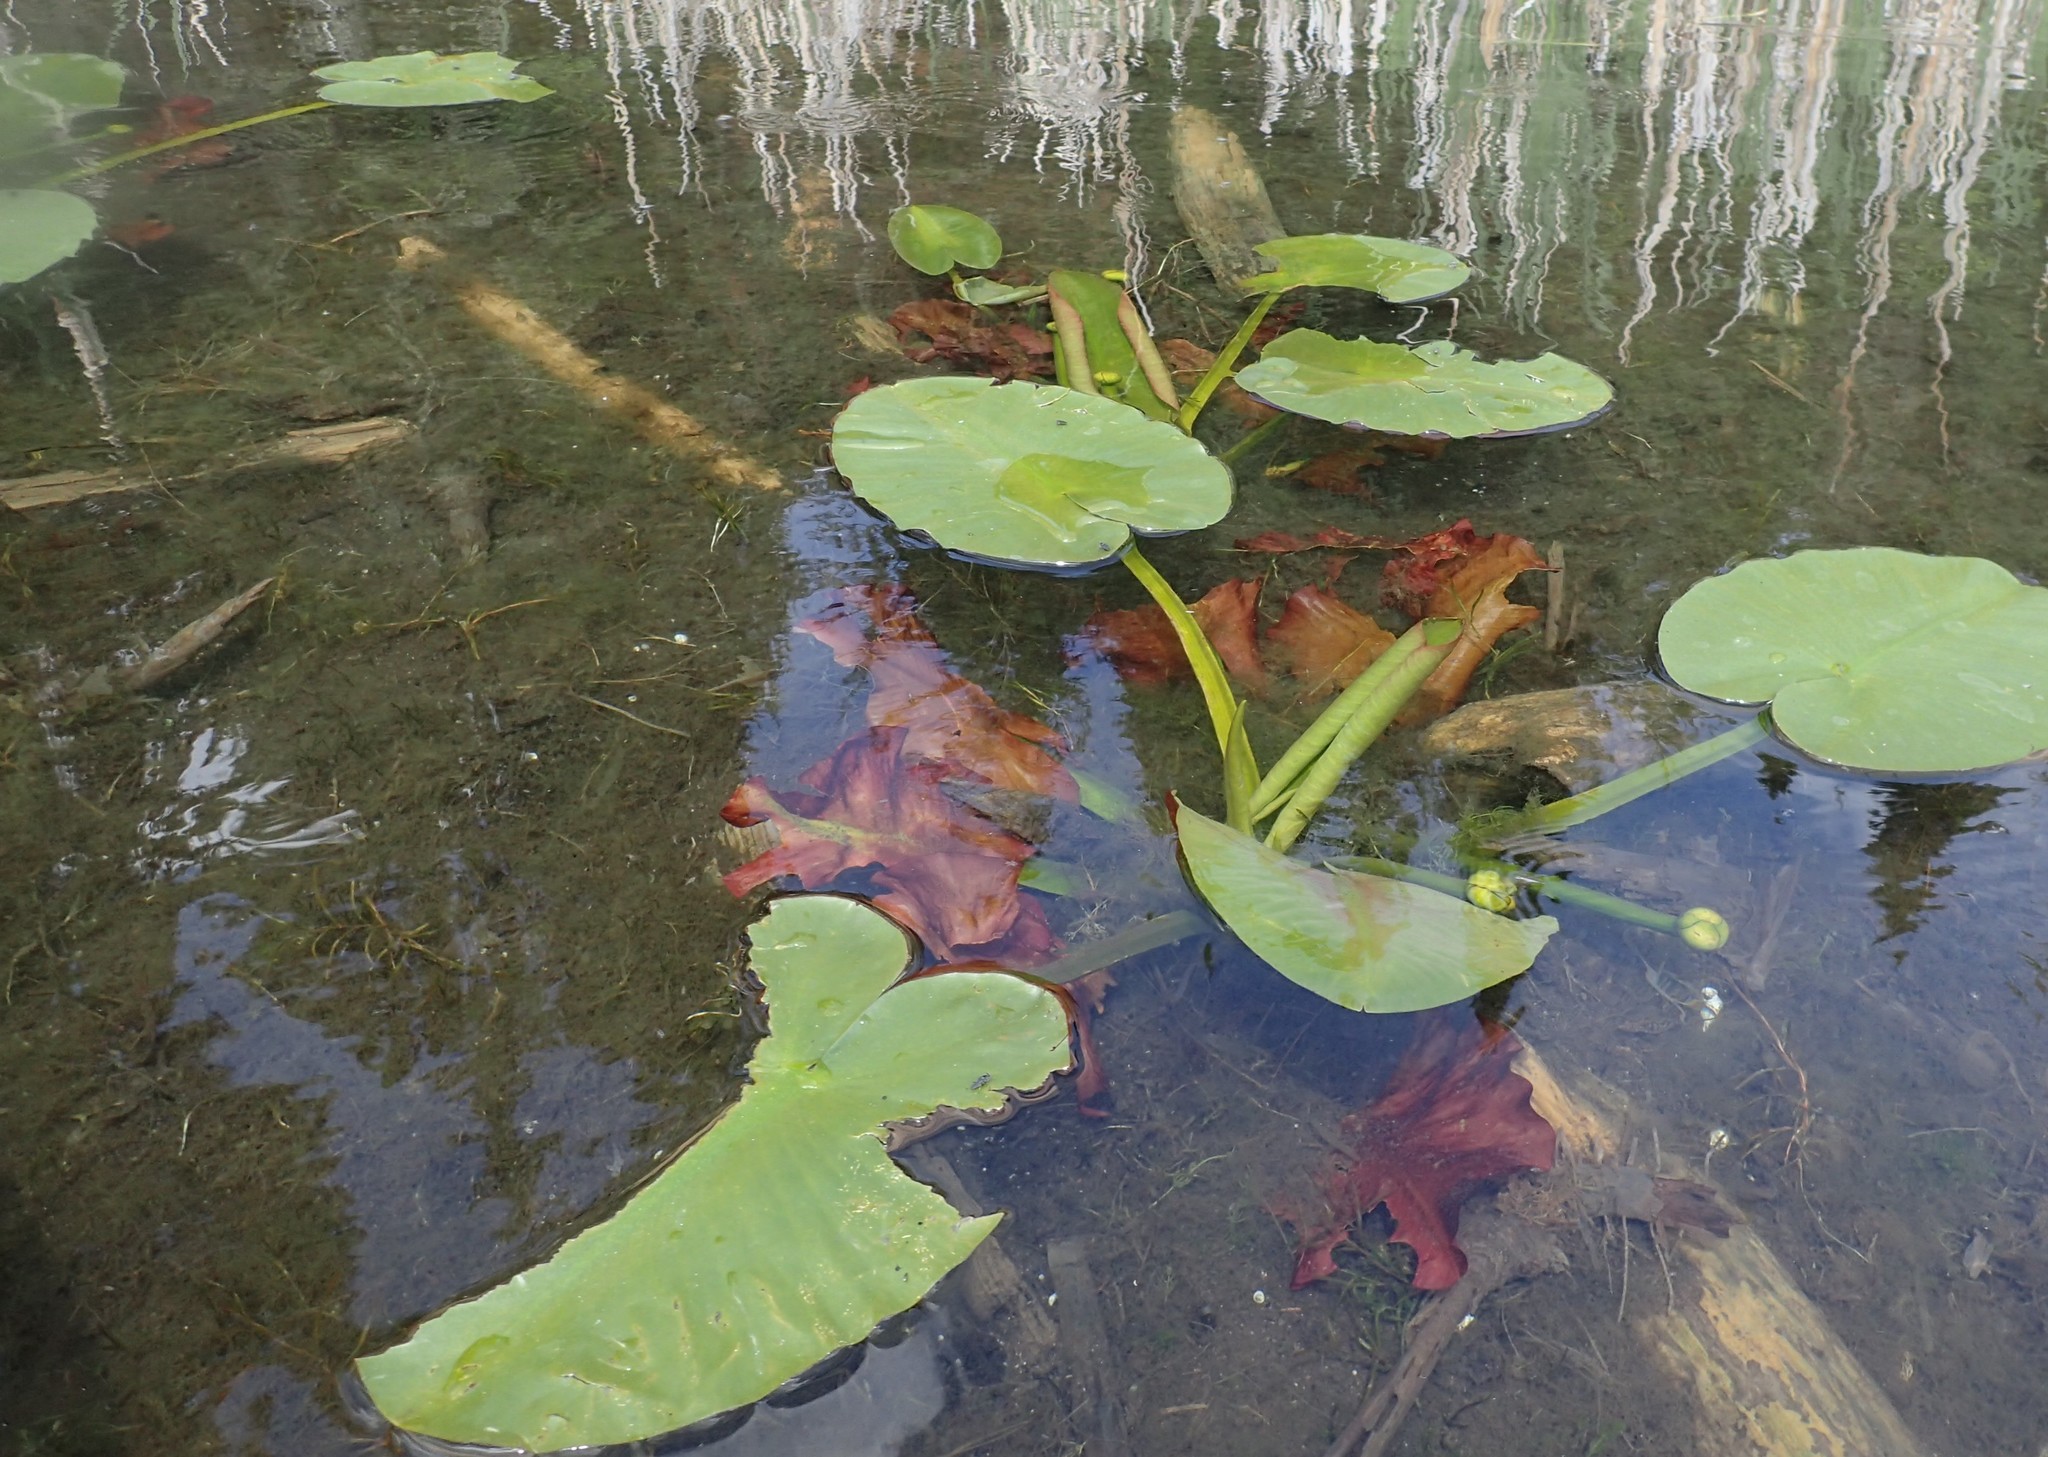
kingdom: Plantae
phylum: Tracheophyta
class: Magnoliopsida
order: Nymphaeales
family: Nymphaeaceae
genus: Nuphar
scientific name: Nuphar variegata
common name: Beaver-root
